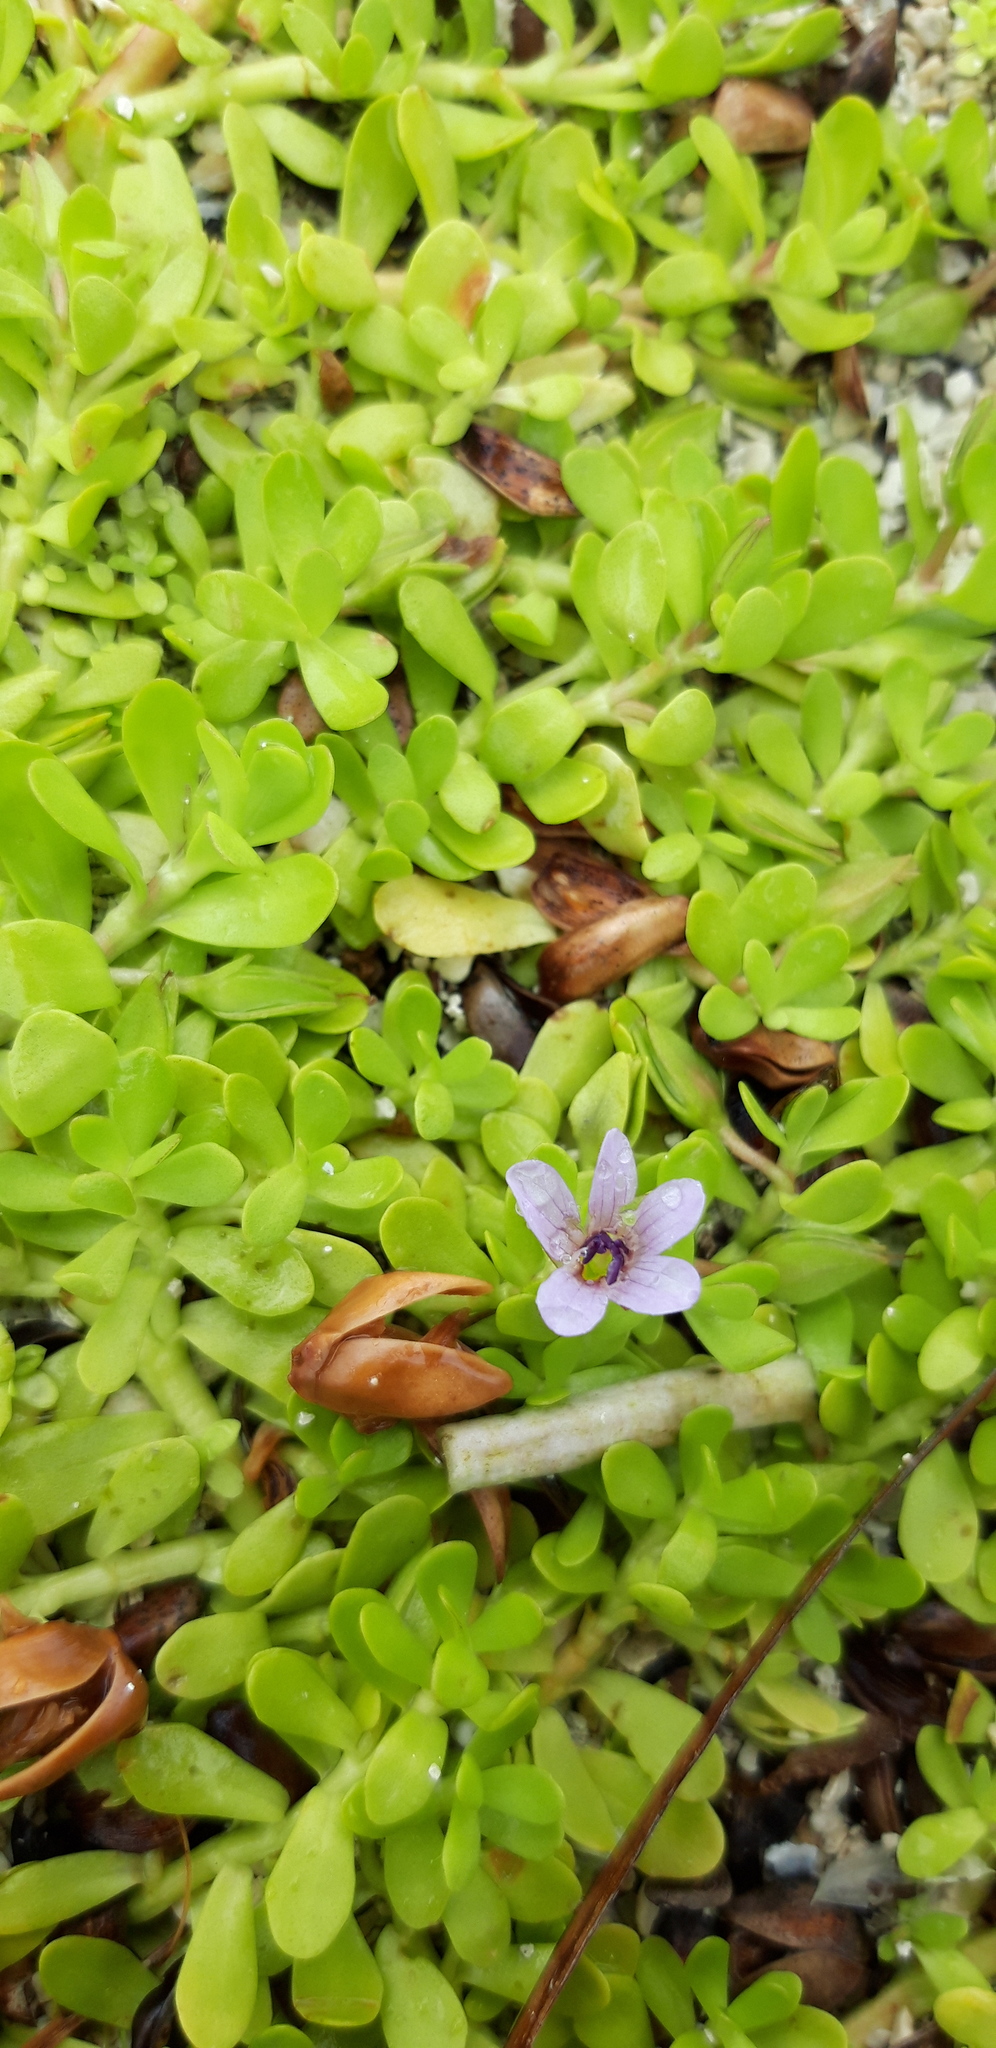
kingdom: Plantae
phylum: Tracheophyta
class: Magnoliopsida
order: Lamiales
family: Plantaginaceae
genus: Bacopa
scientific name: Bacopa monnieri
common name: Indian-pennywort
